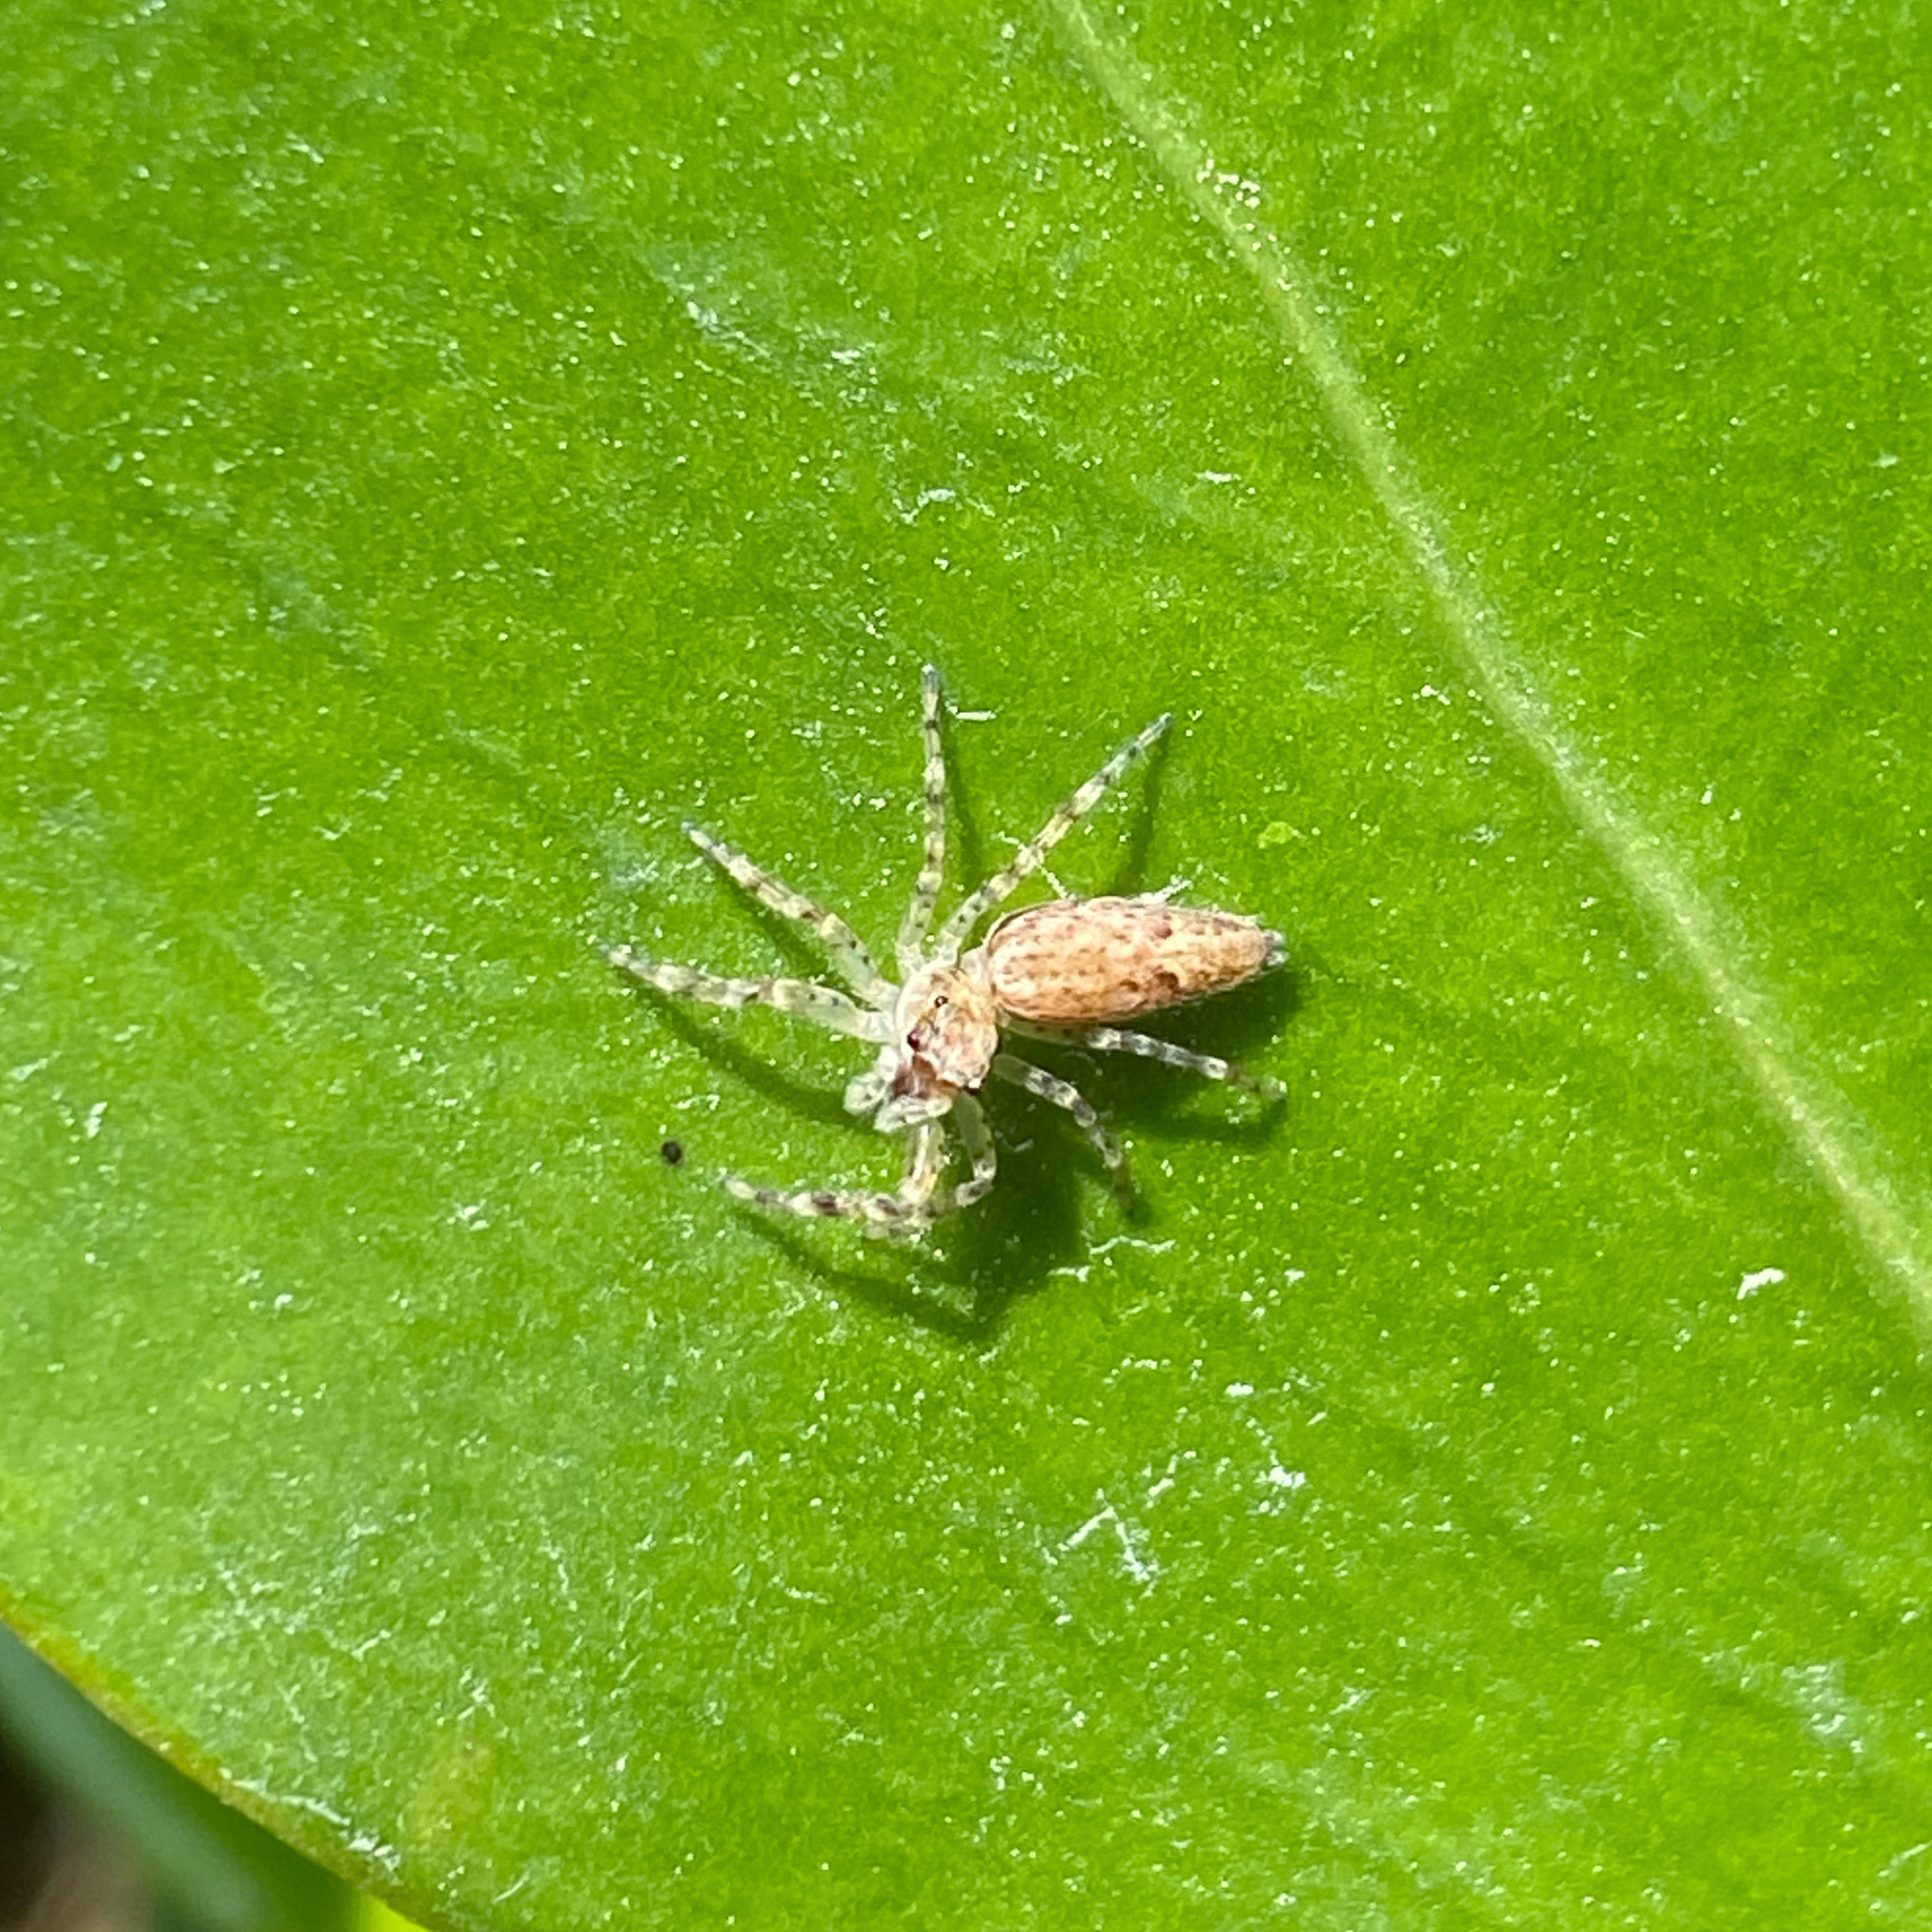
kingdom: Animalia
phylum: Arthropoda
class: Arachnida
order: Araneae
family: Salticidae
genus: Helpis
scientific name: Helpis minitabunda
